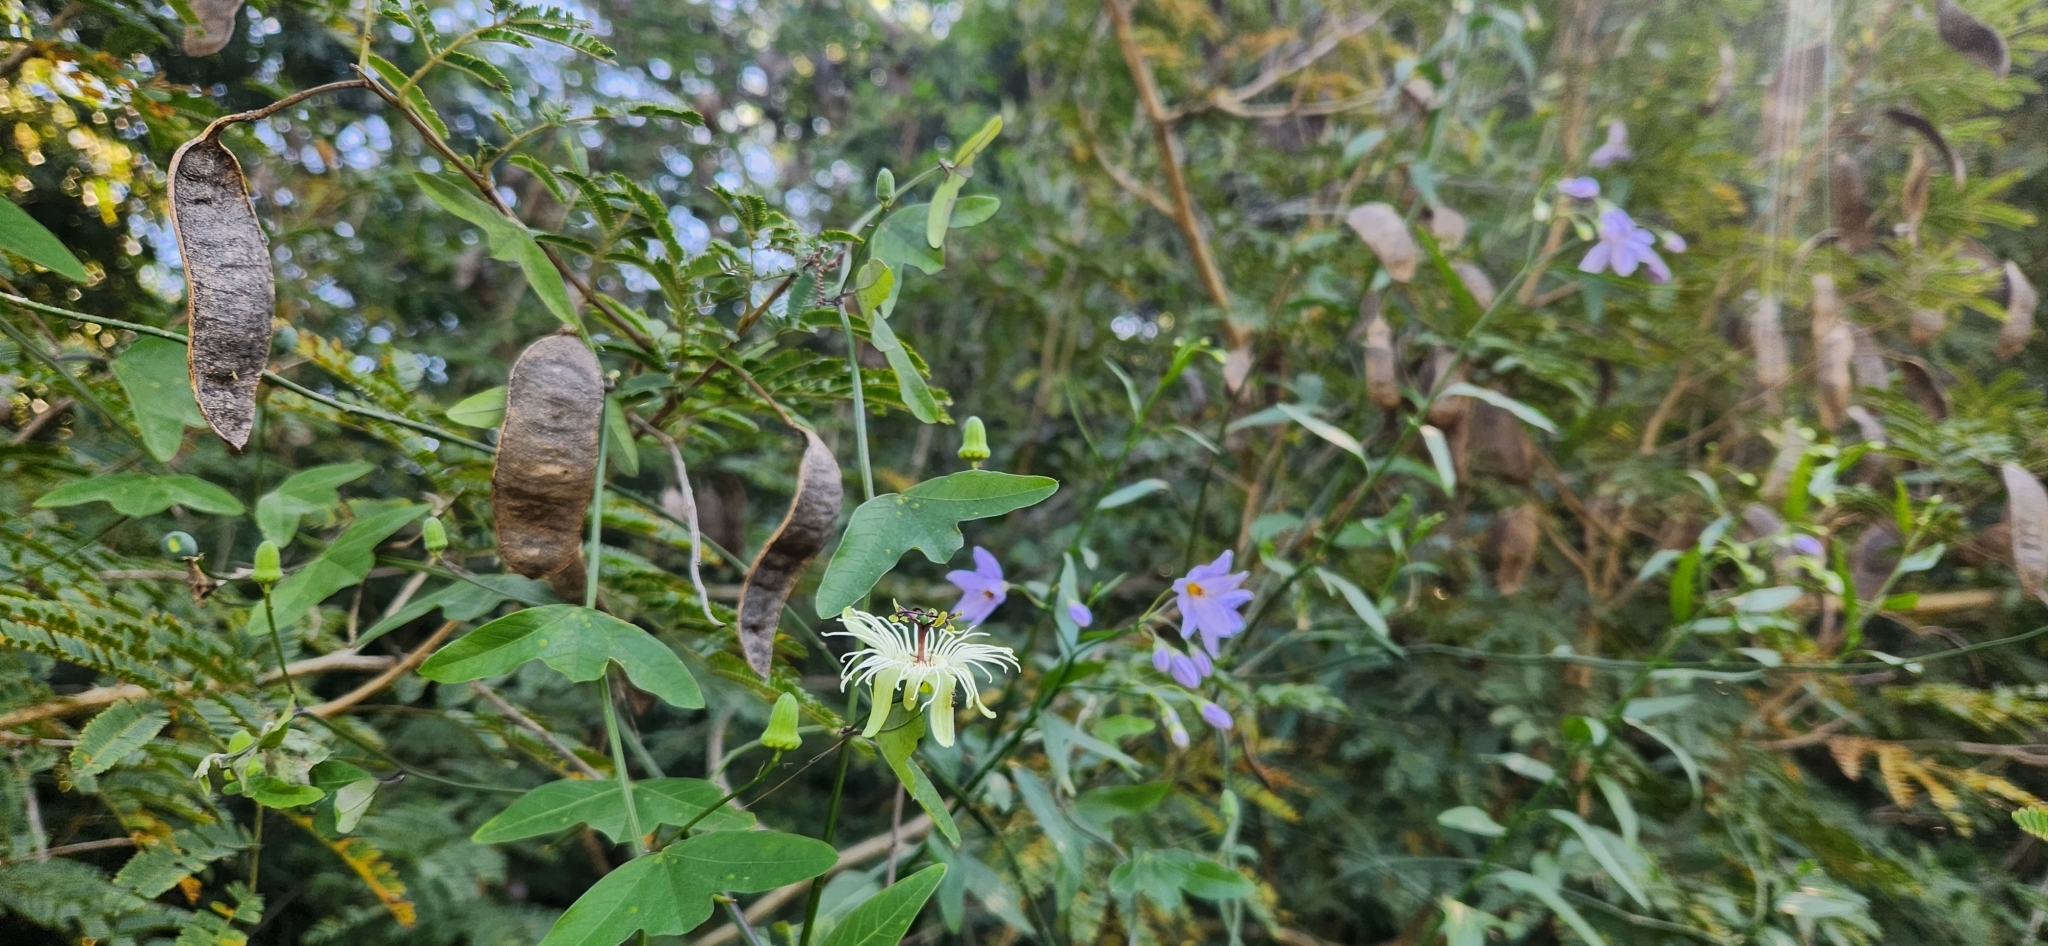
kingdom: Plantae
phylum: Tracheophyta
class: Magnoliopsida
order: Malpighiales
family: Passifloraceae
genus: Passiflora
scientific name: Passiflora misera
